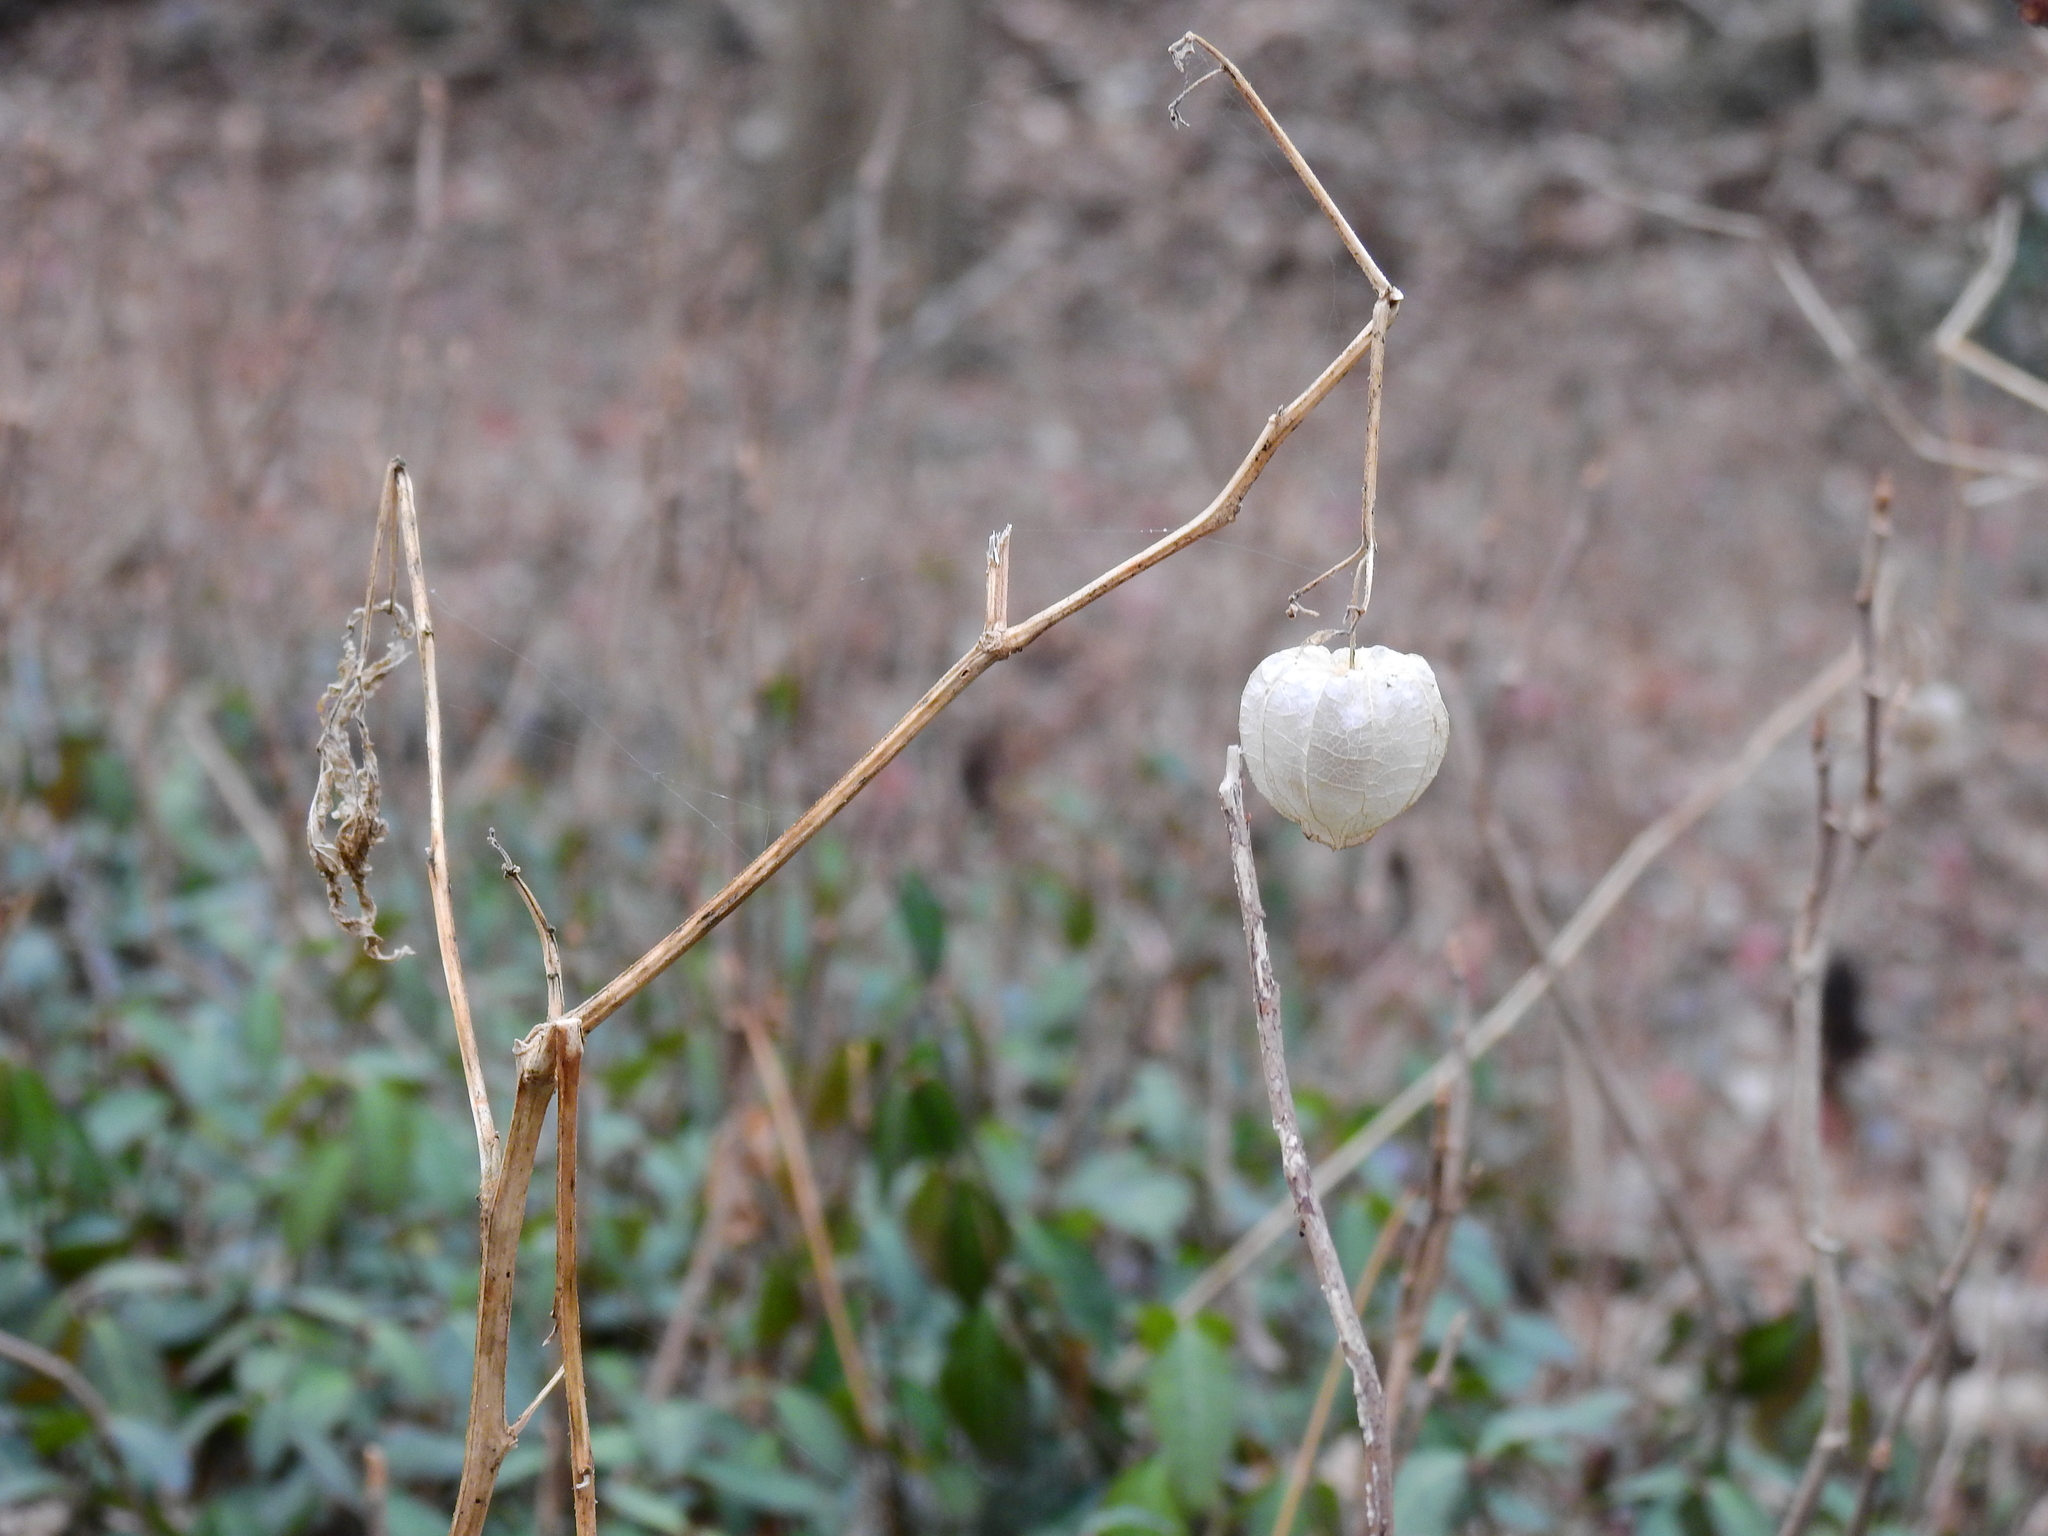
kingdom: Plantae
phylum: Tracheophyta
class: Magnoliopsida
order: Solanales
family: Solanaceae
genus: Alkekengi
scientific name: Alkekengi officinarum
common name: Japanese-lantern
